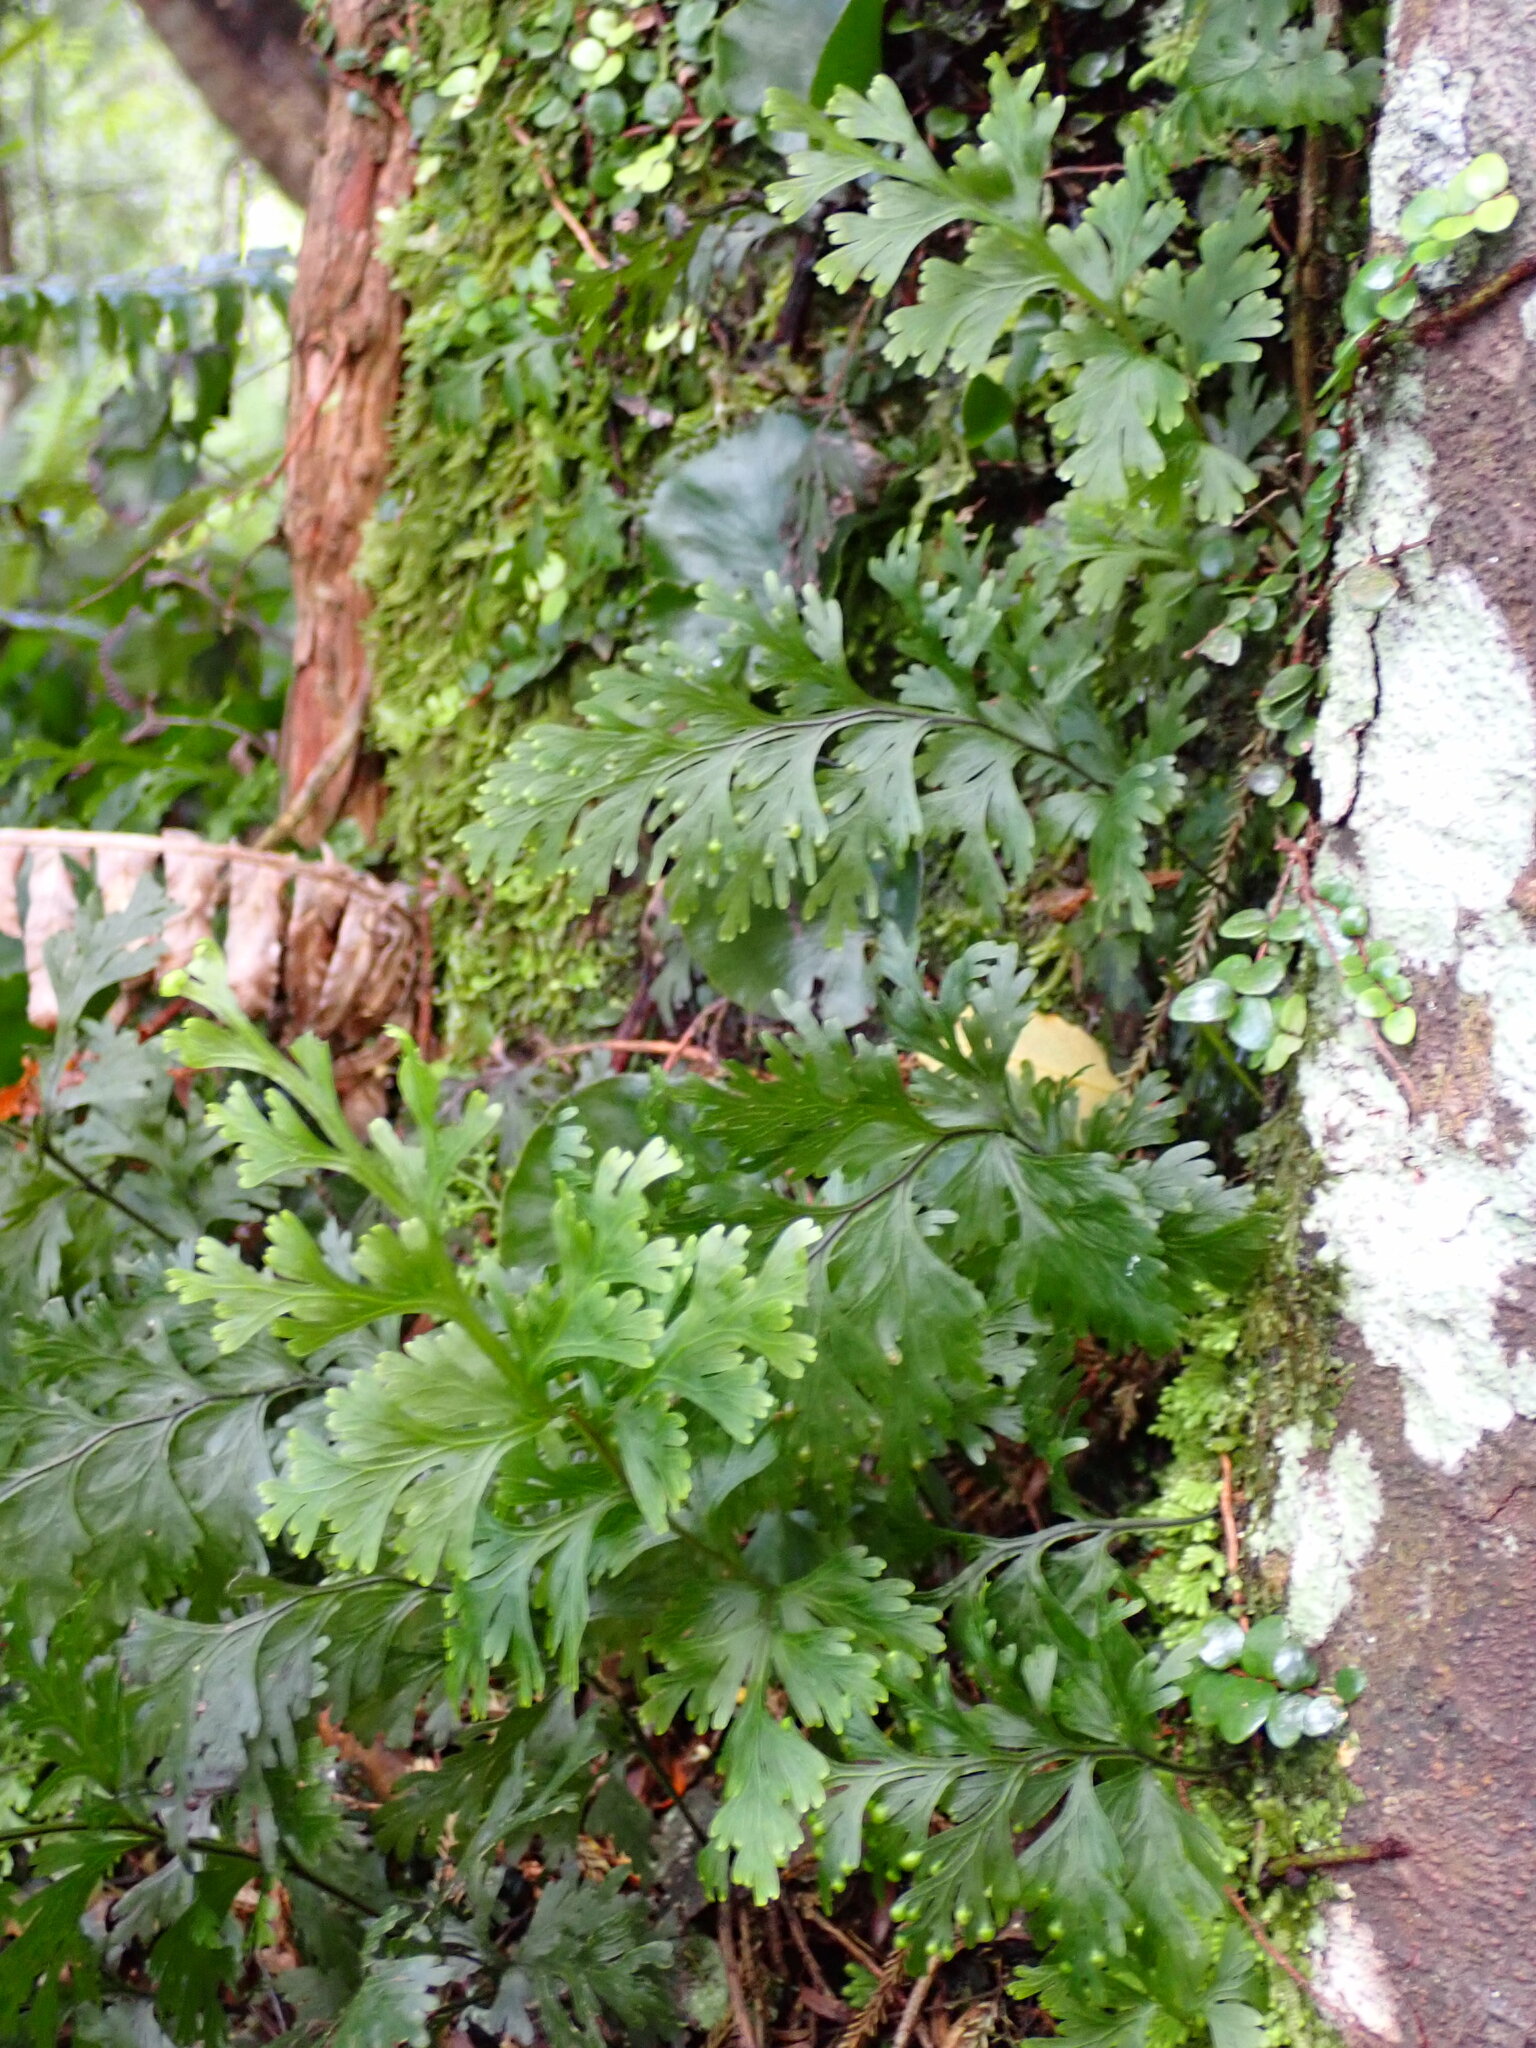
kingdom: Plantae
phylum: Tracheophyta
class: Polypodiopsida
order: Hymenophyllales
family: Hymenophyllaceae
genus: Hymenophyllum
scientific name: Hymenophyllum dilatatum
